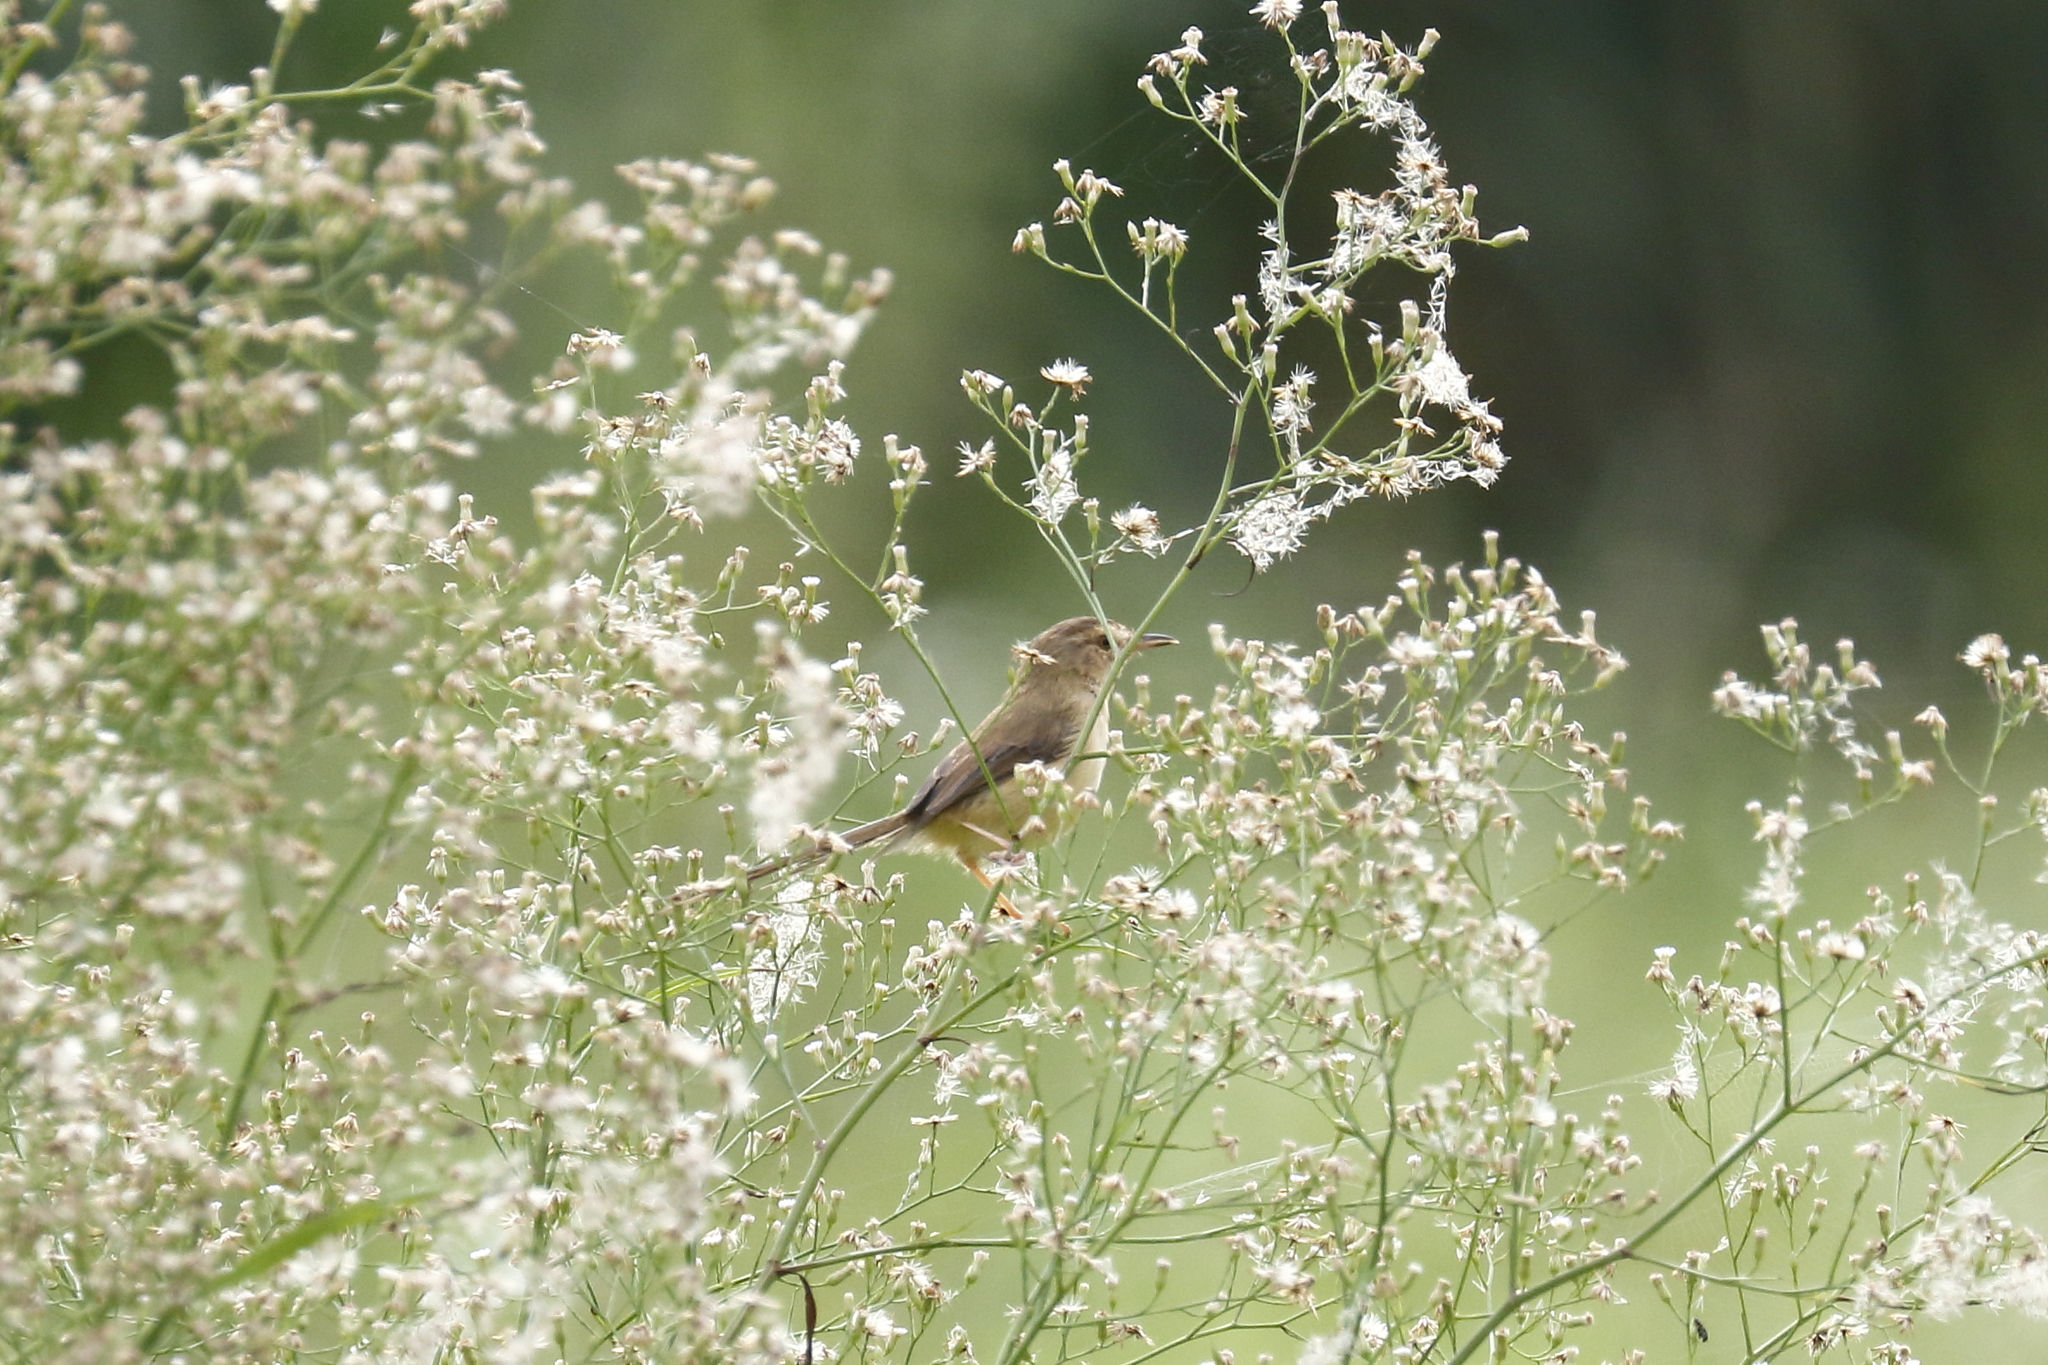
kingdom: Animalia
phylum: Chordata
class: Aves
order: Passeriformes
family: Cisticolidae
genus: Prinia
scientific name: Prinia inornata
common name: Plain prinia
